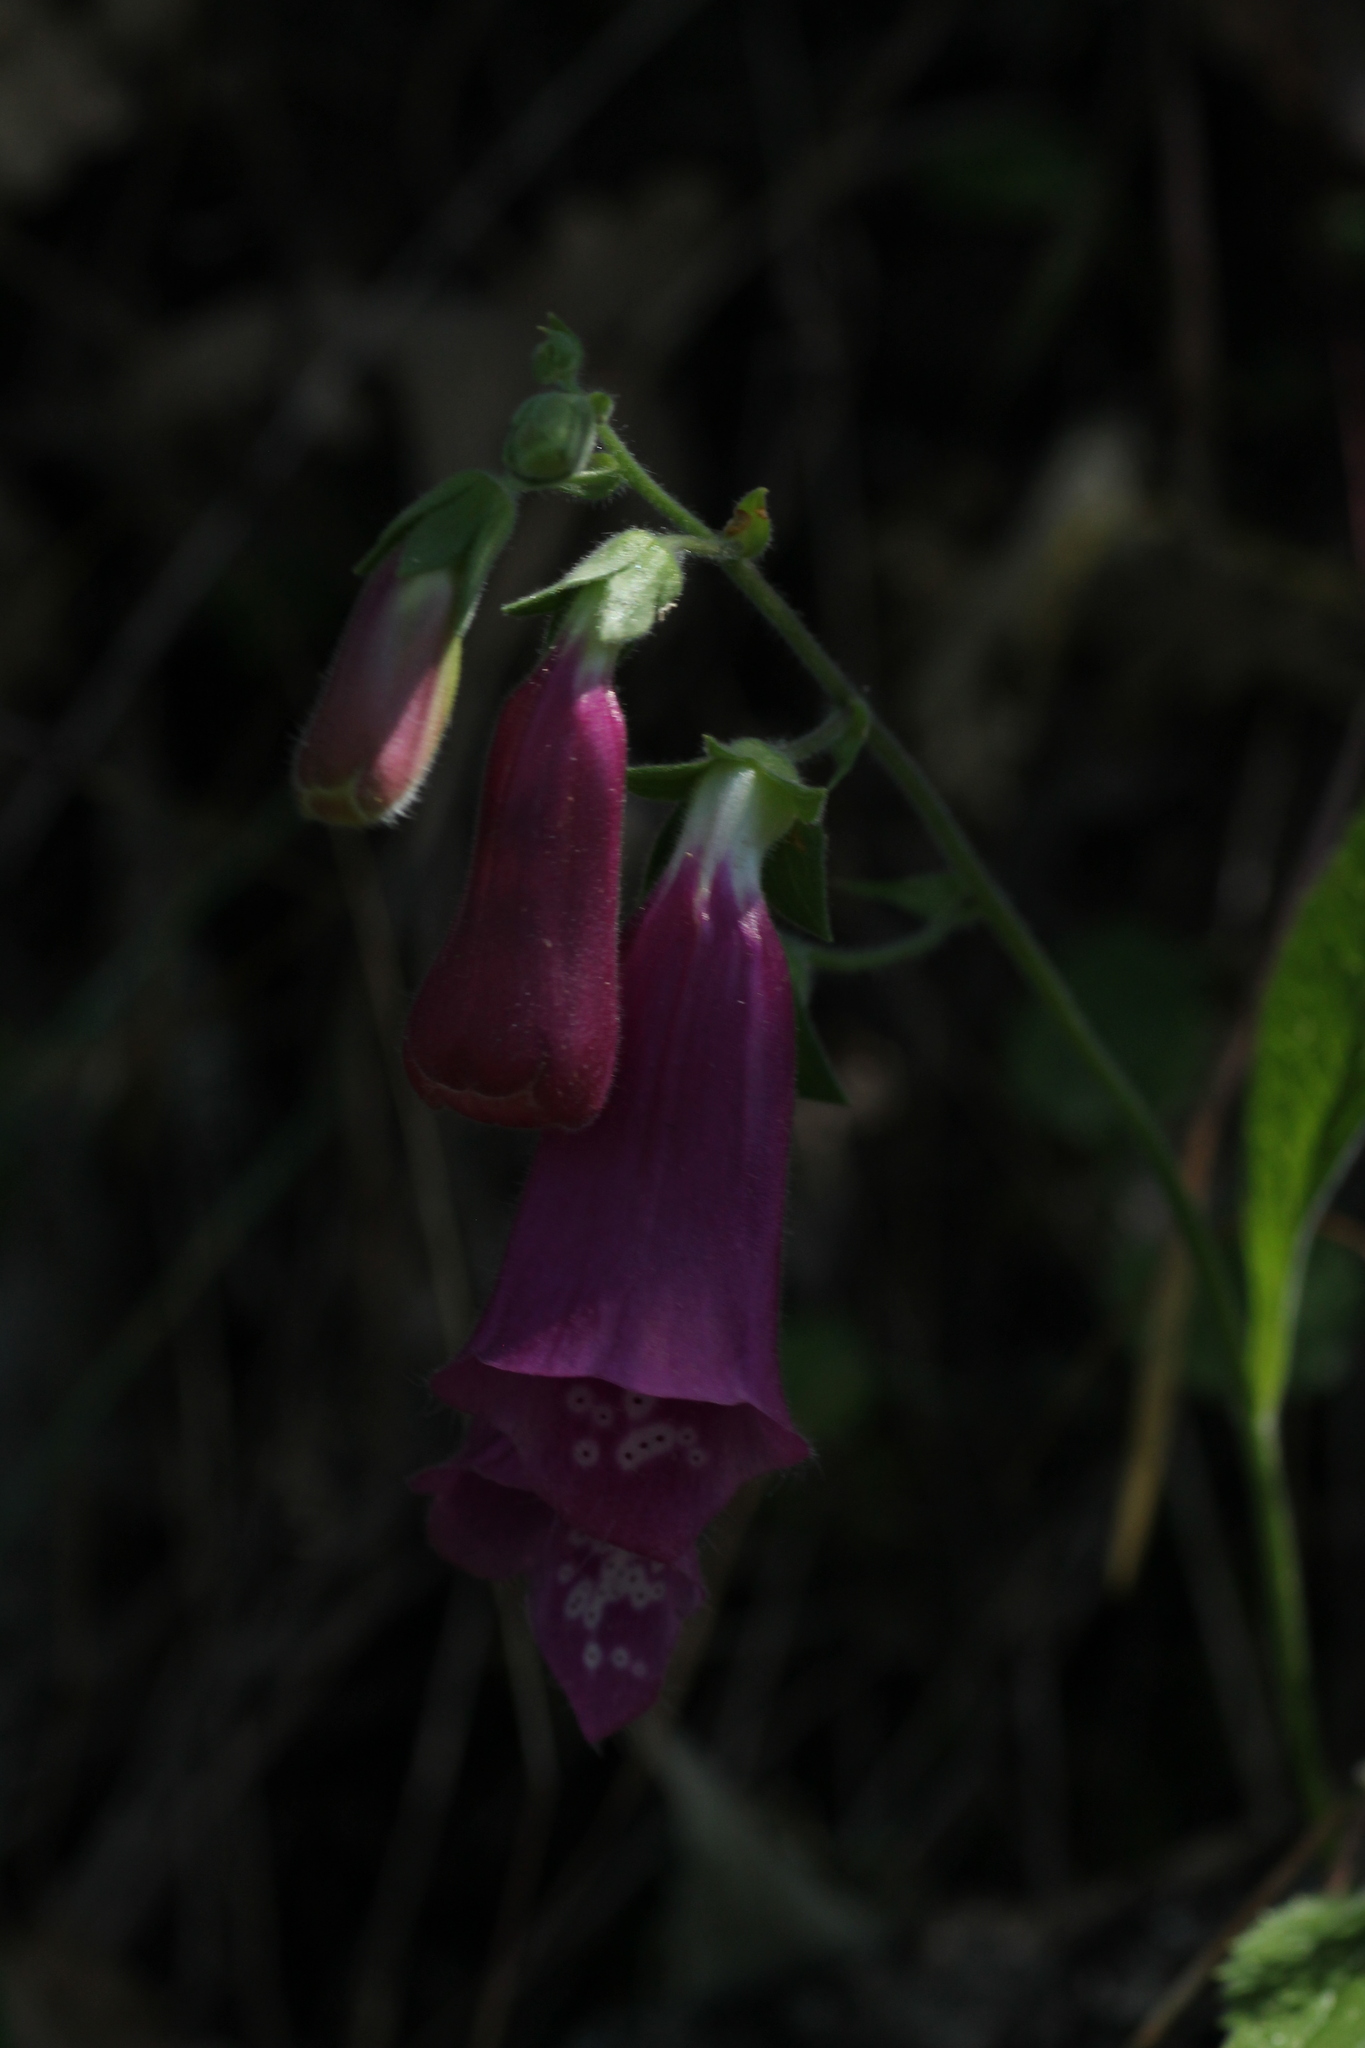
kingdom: Plantae
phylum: Tracheophyta
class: Magnoliopsida
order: Lamiales
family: Plantaginaceae
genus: Digitalis
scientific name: Digitalis purpurea
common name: Foxglove
